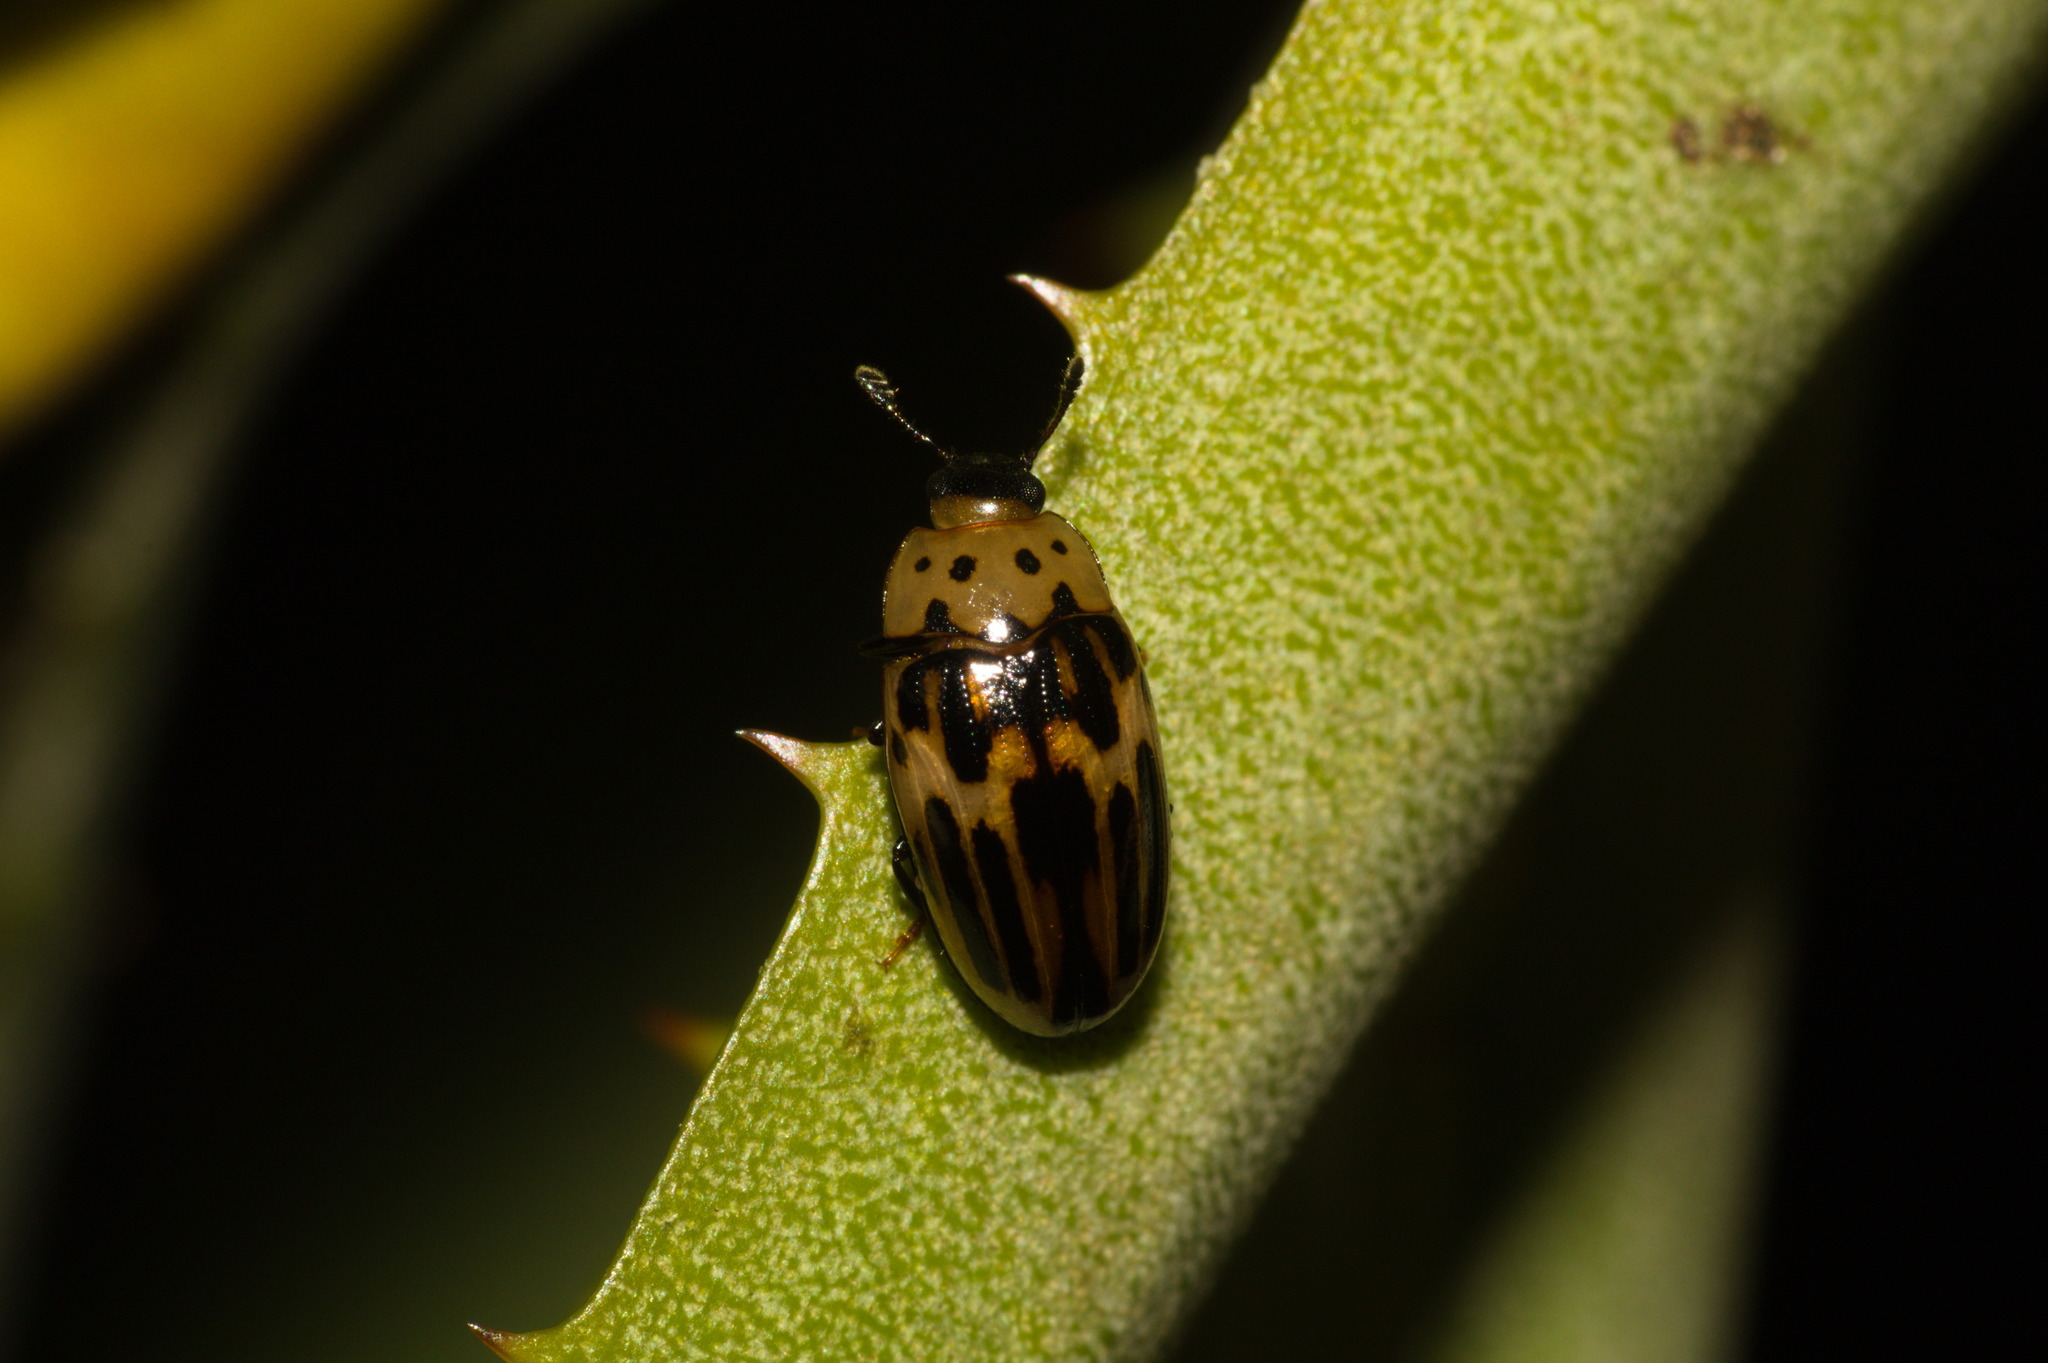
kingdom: Animalia
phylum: Arthropoda
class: Insecta
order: Coleoptera
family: Erotylidae
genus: Ischyrus
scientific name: Ischyrus
